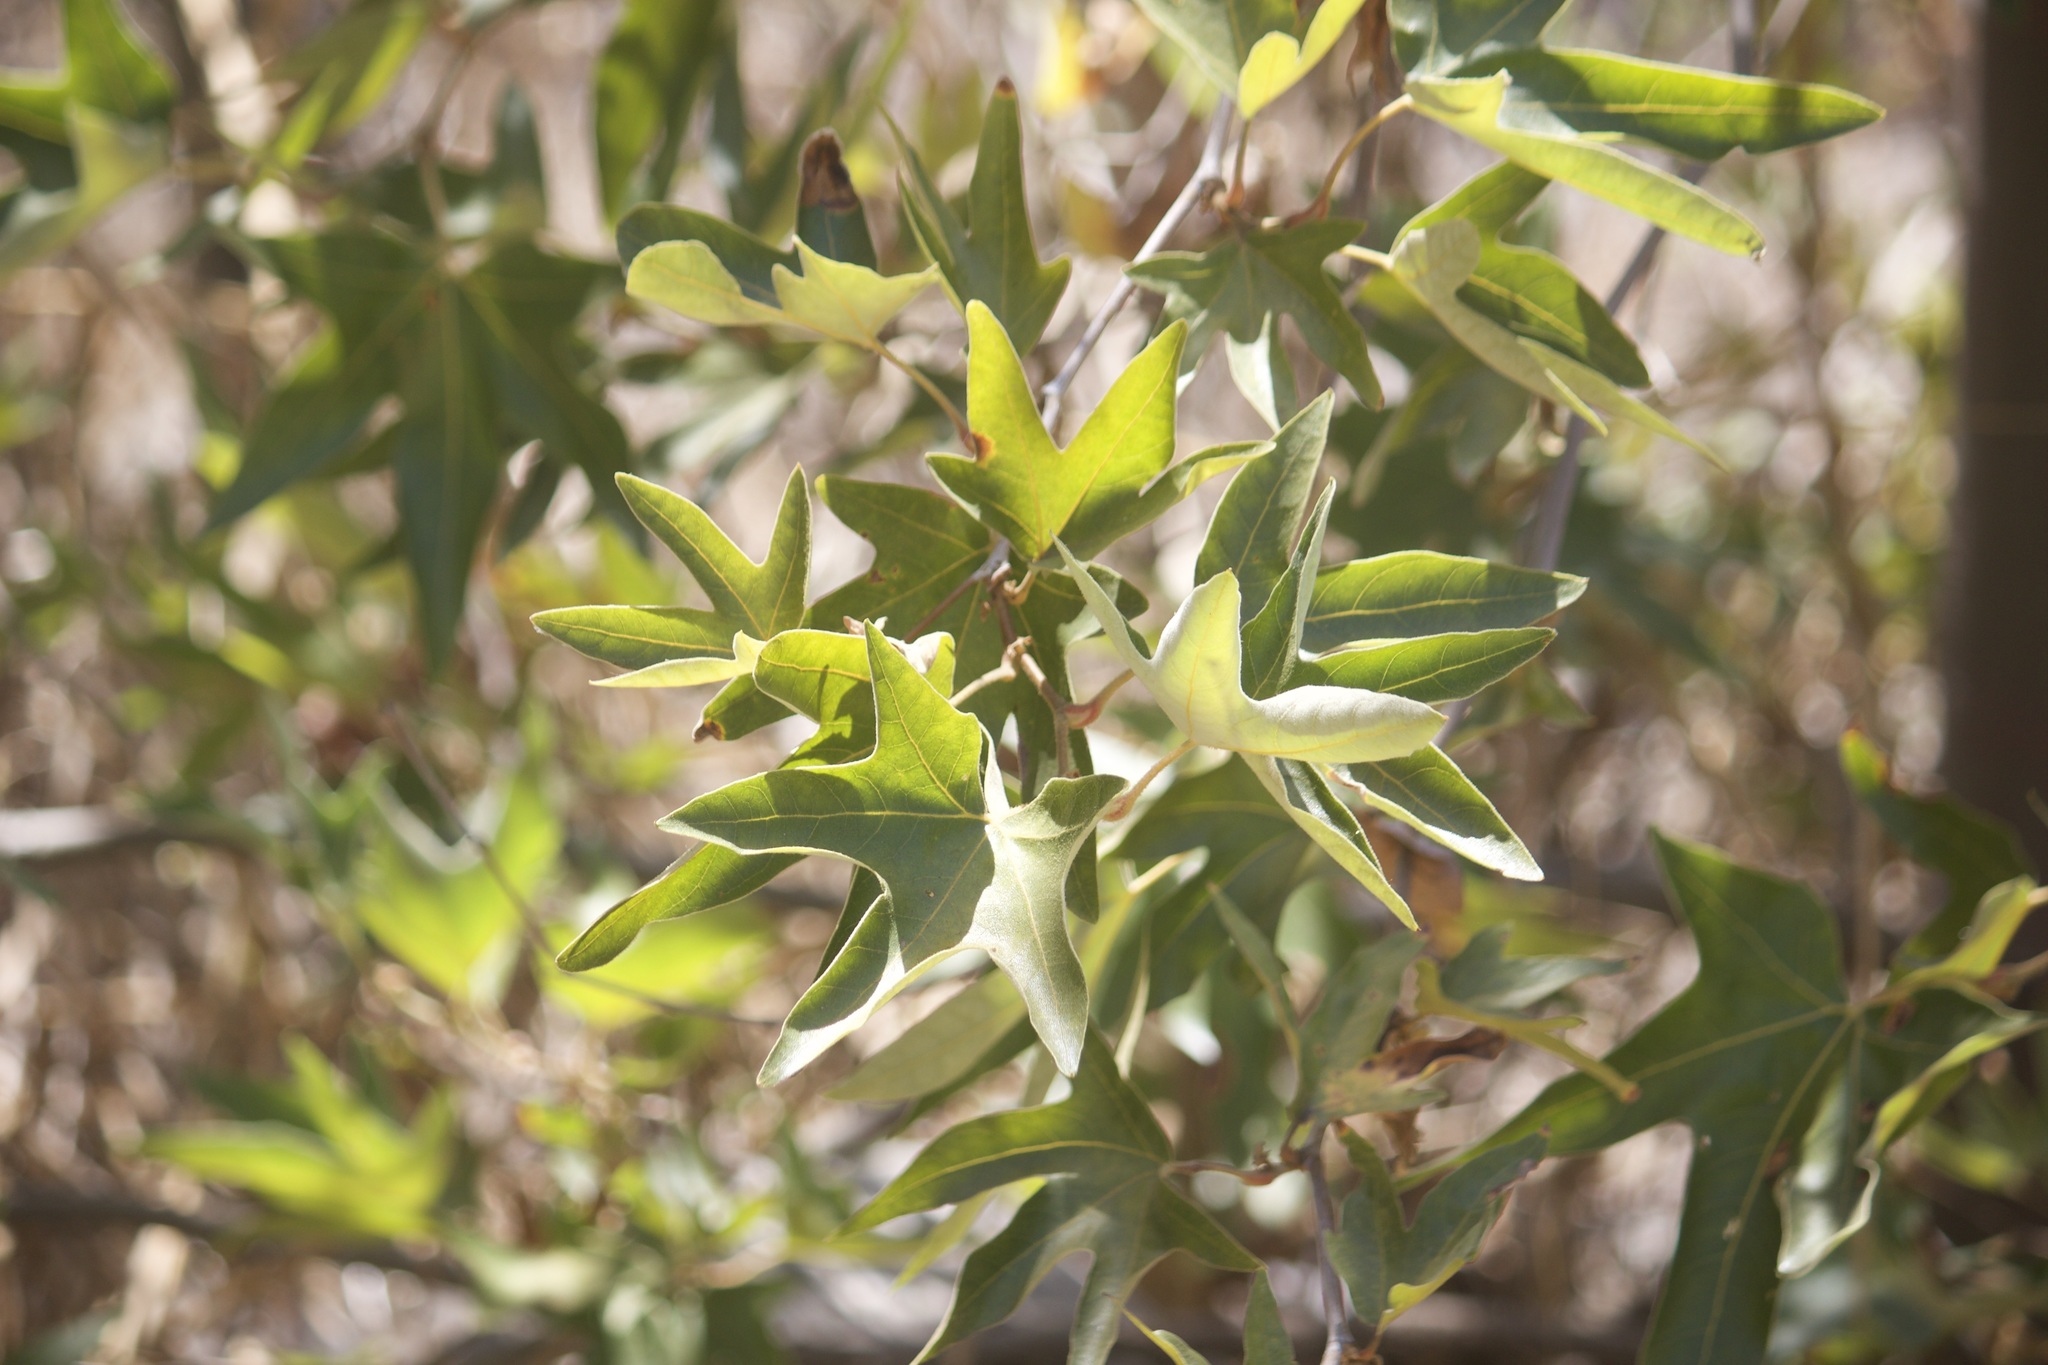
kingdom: Plantae
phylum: Tracheophyta
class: Magnoliopsida
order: Proteales
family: Platanaceae
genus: Platanus
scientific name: Platanus racemosa
